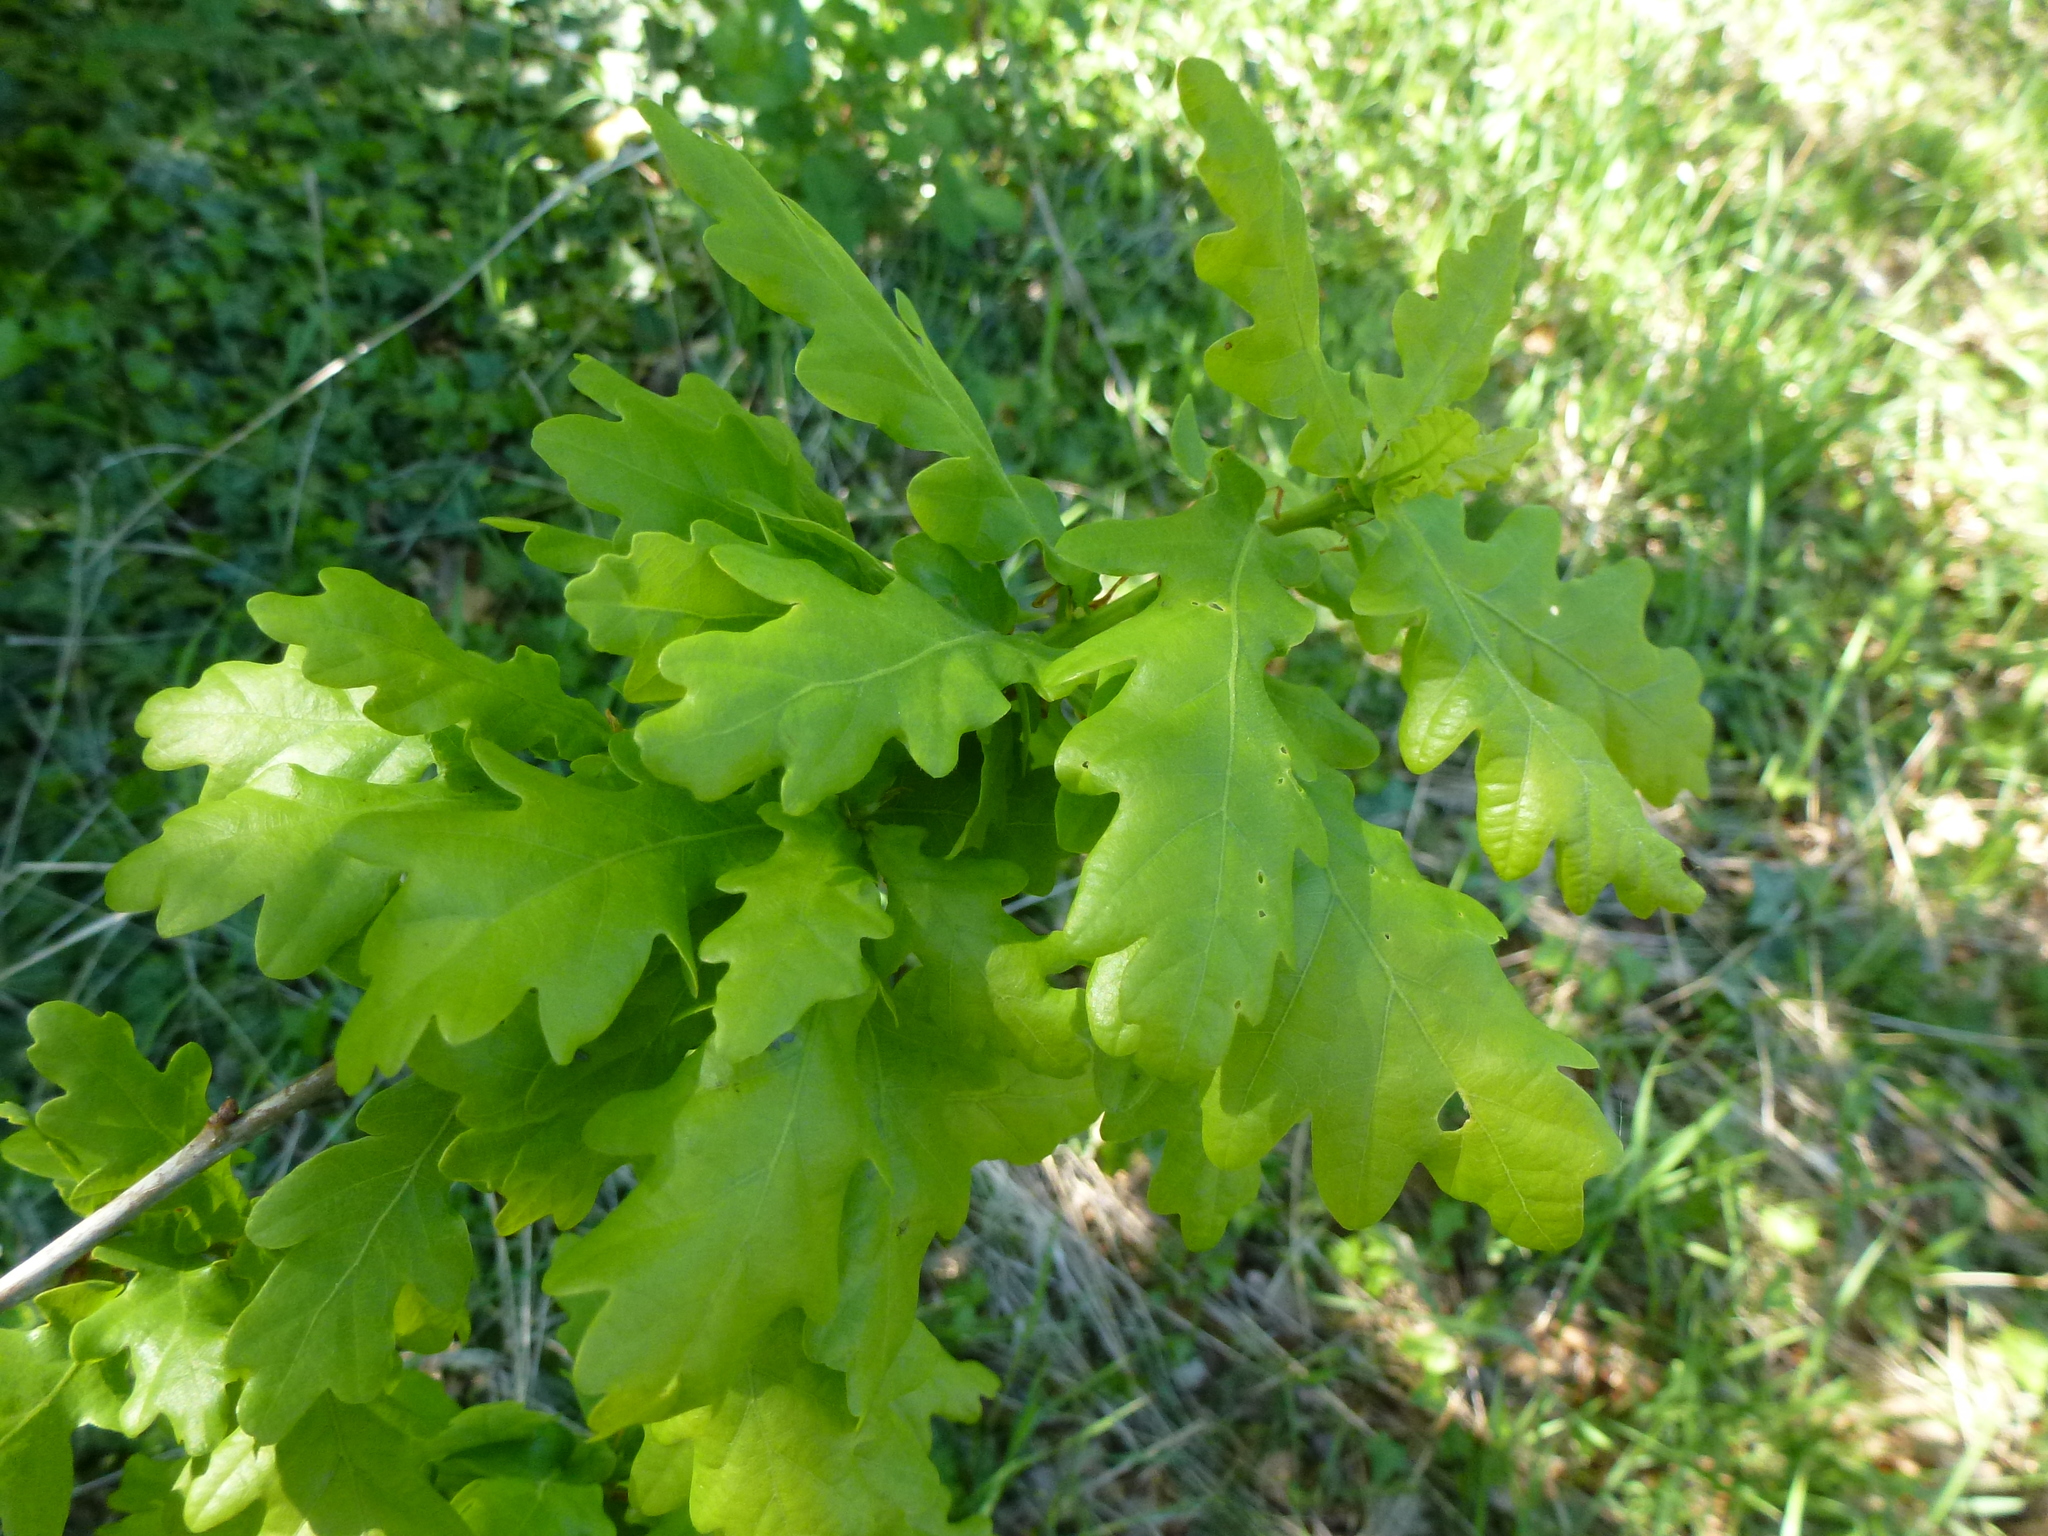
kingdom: Plantae
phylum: Tracheophyta
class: Magnoliopsida
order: Fagales
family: Fagaceae
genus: Quercus
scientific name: Quercus robur
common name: Pedunculate oak
